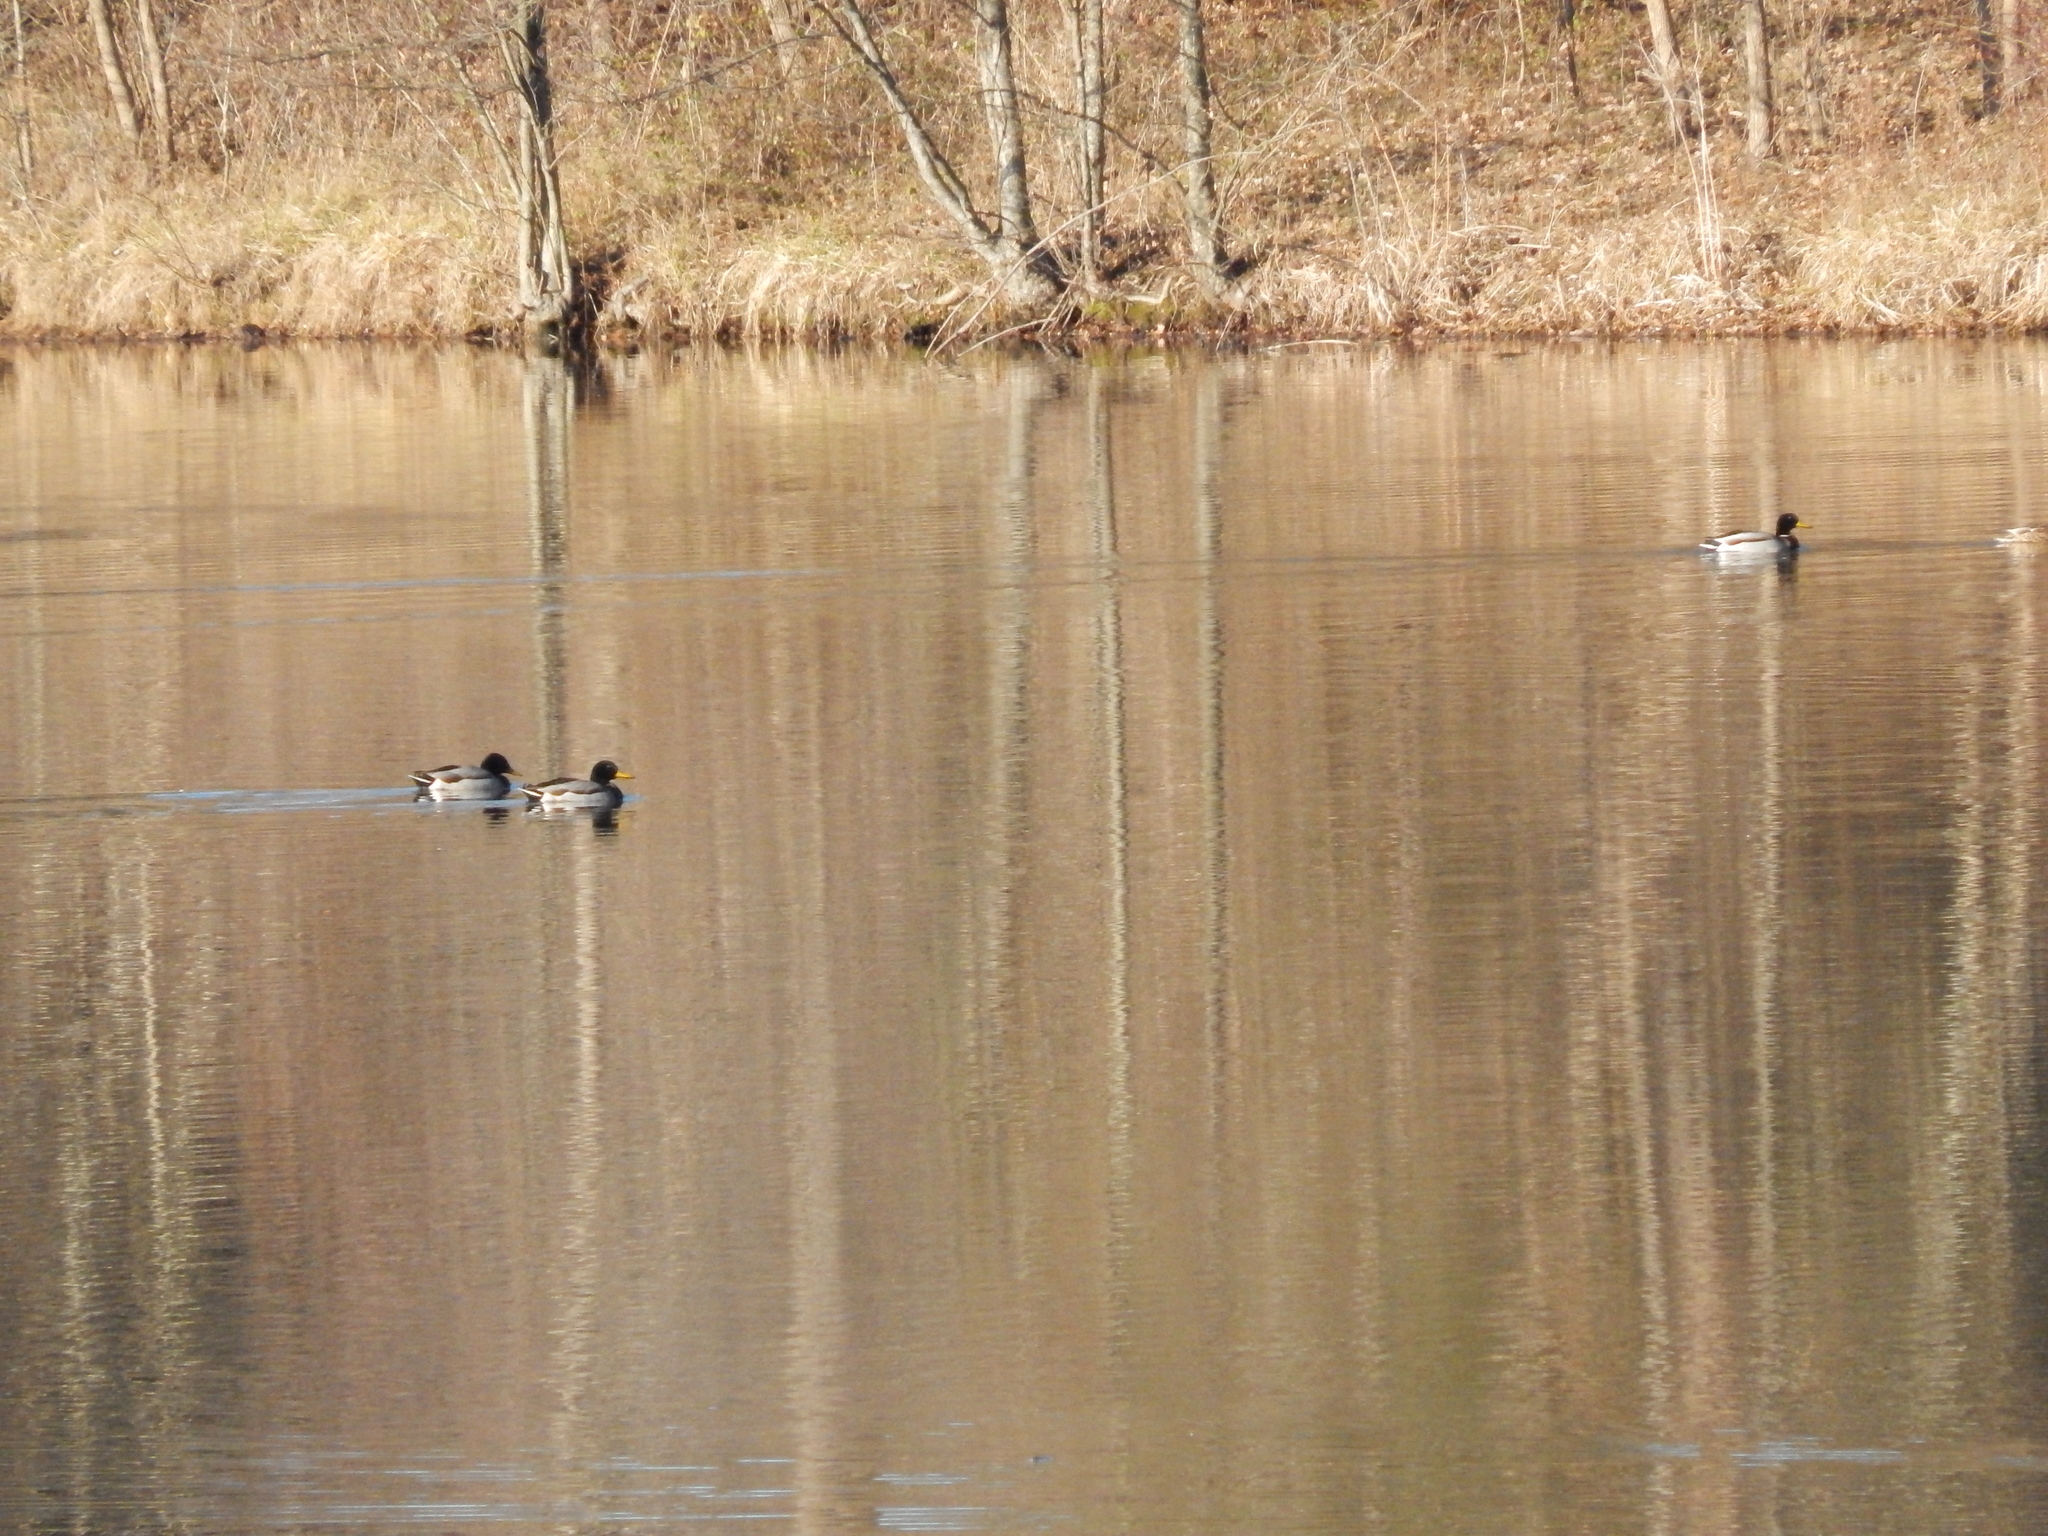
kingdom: Animalia
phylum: Chordata
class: Aves
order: Anseriformes
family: Anatidae
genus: Anas
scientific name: Anas platyrhynchos
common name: Mallard
